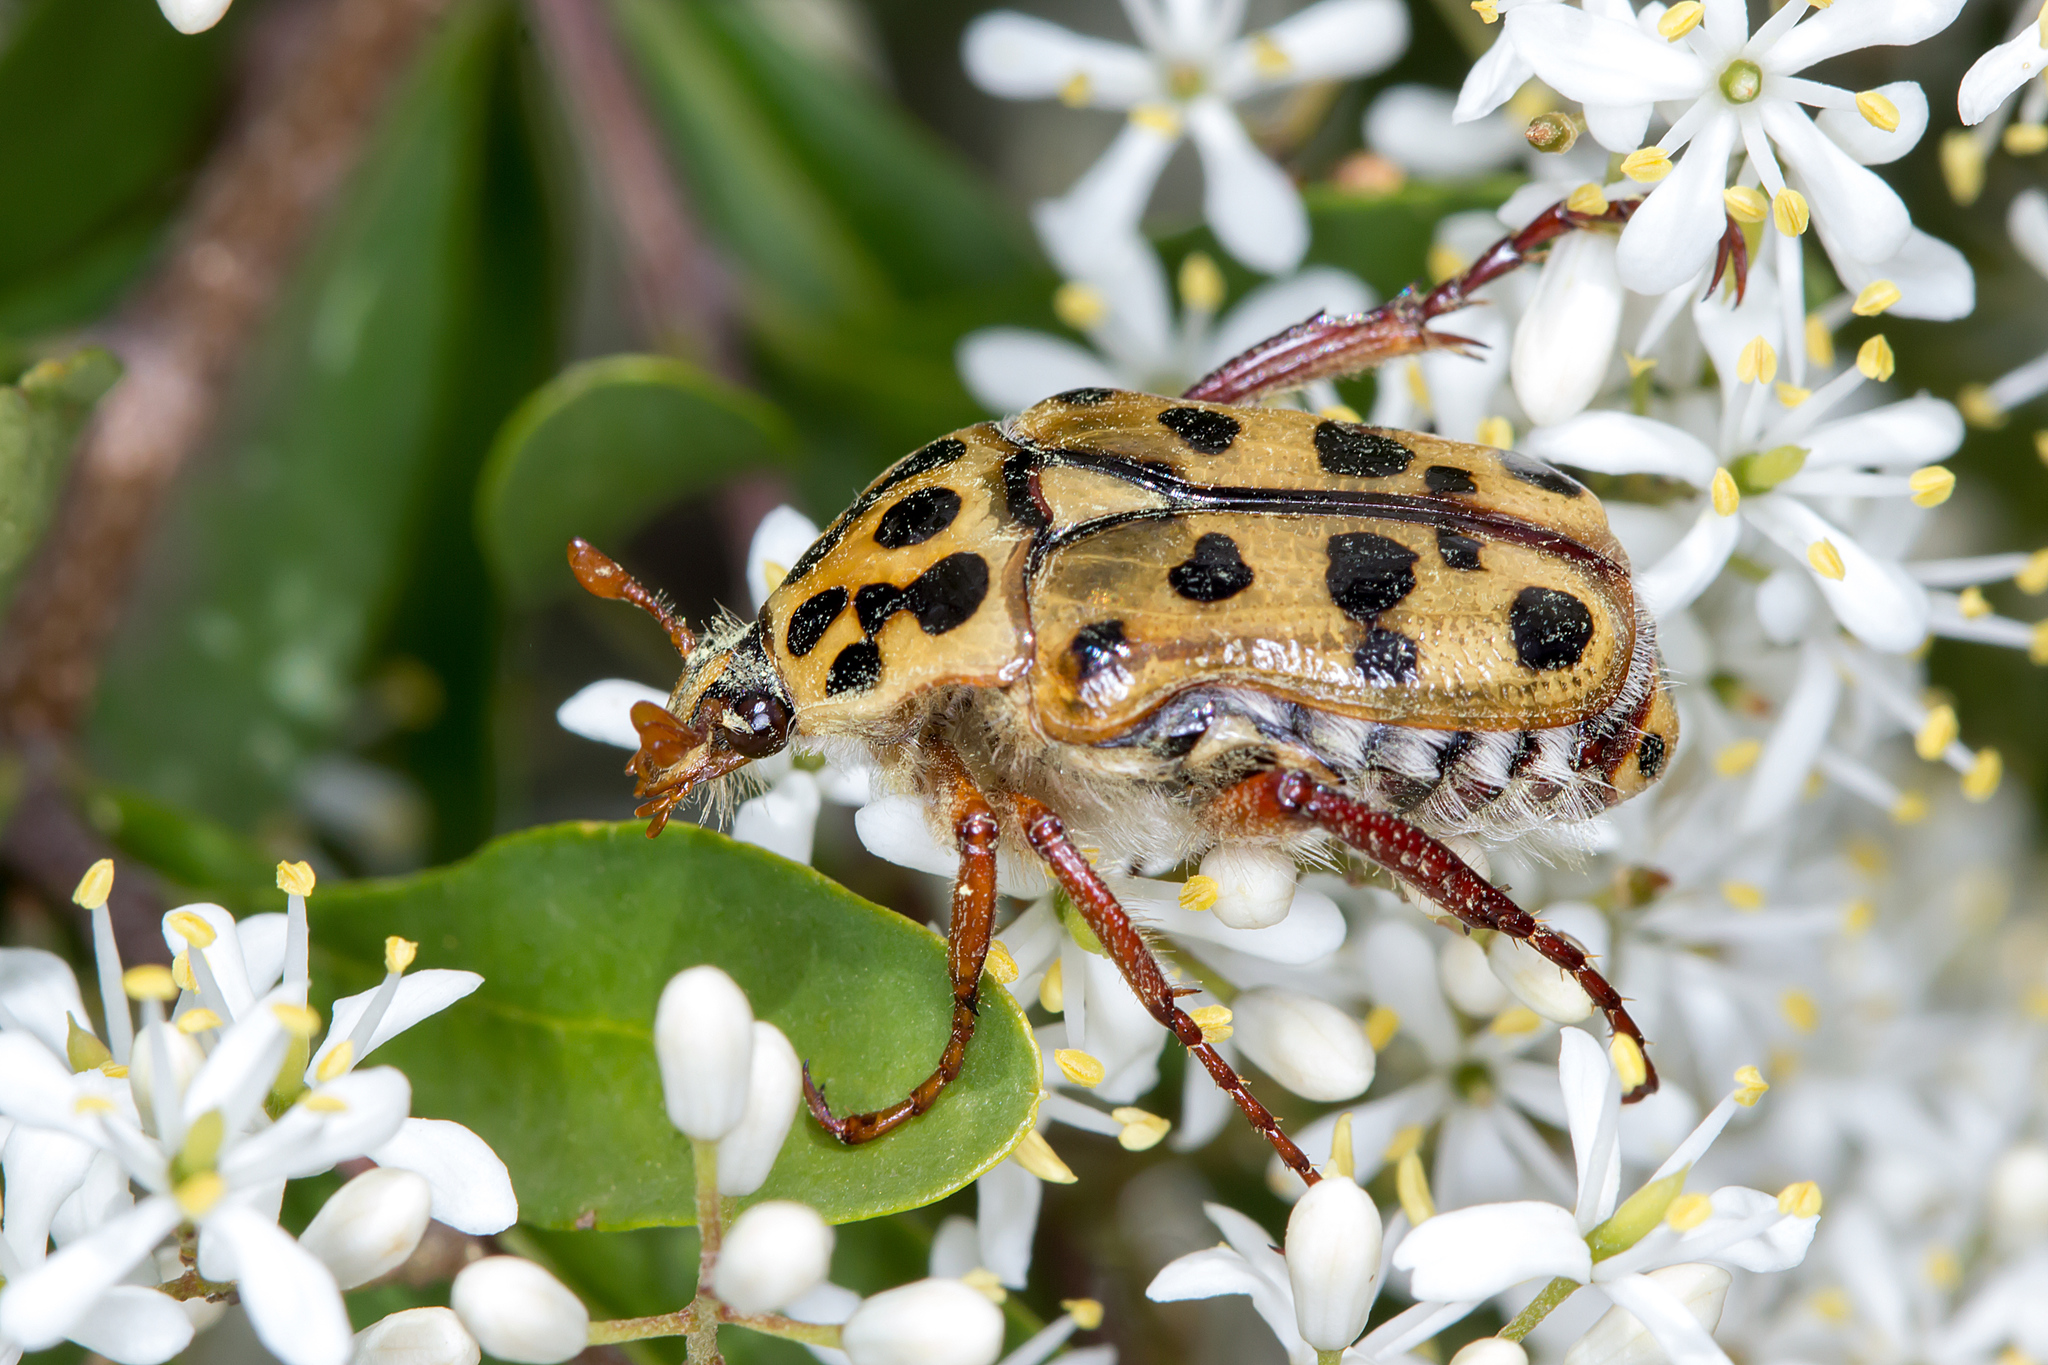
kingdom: Animalia
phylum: Arthropoda
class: Insecta
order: Coleoptera
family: Scarabaeidae
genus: Neorrhina
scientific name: Neorrhina punctatum
